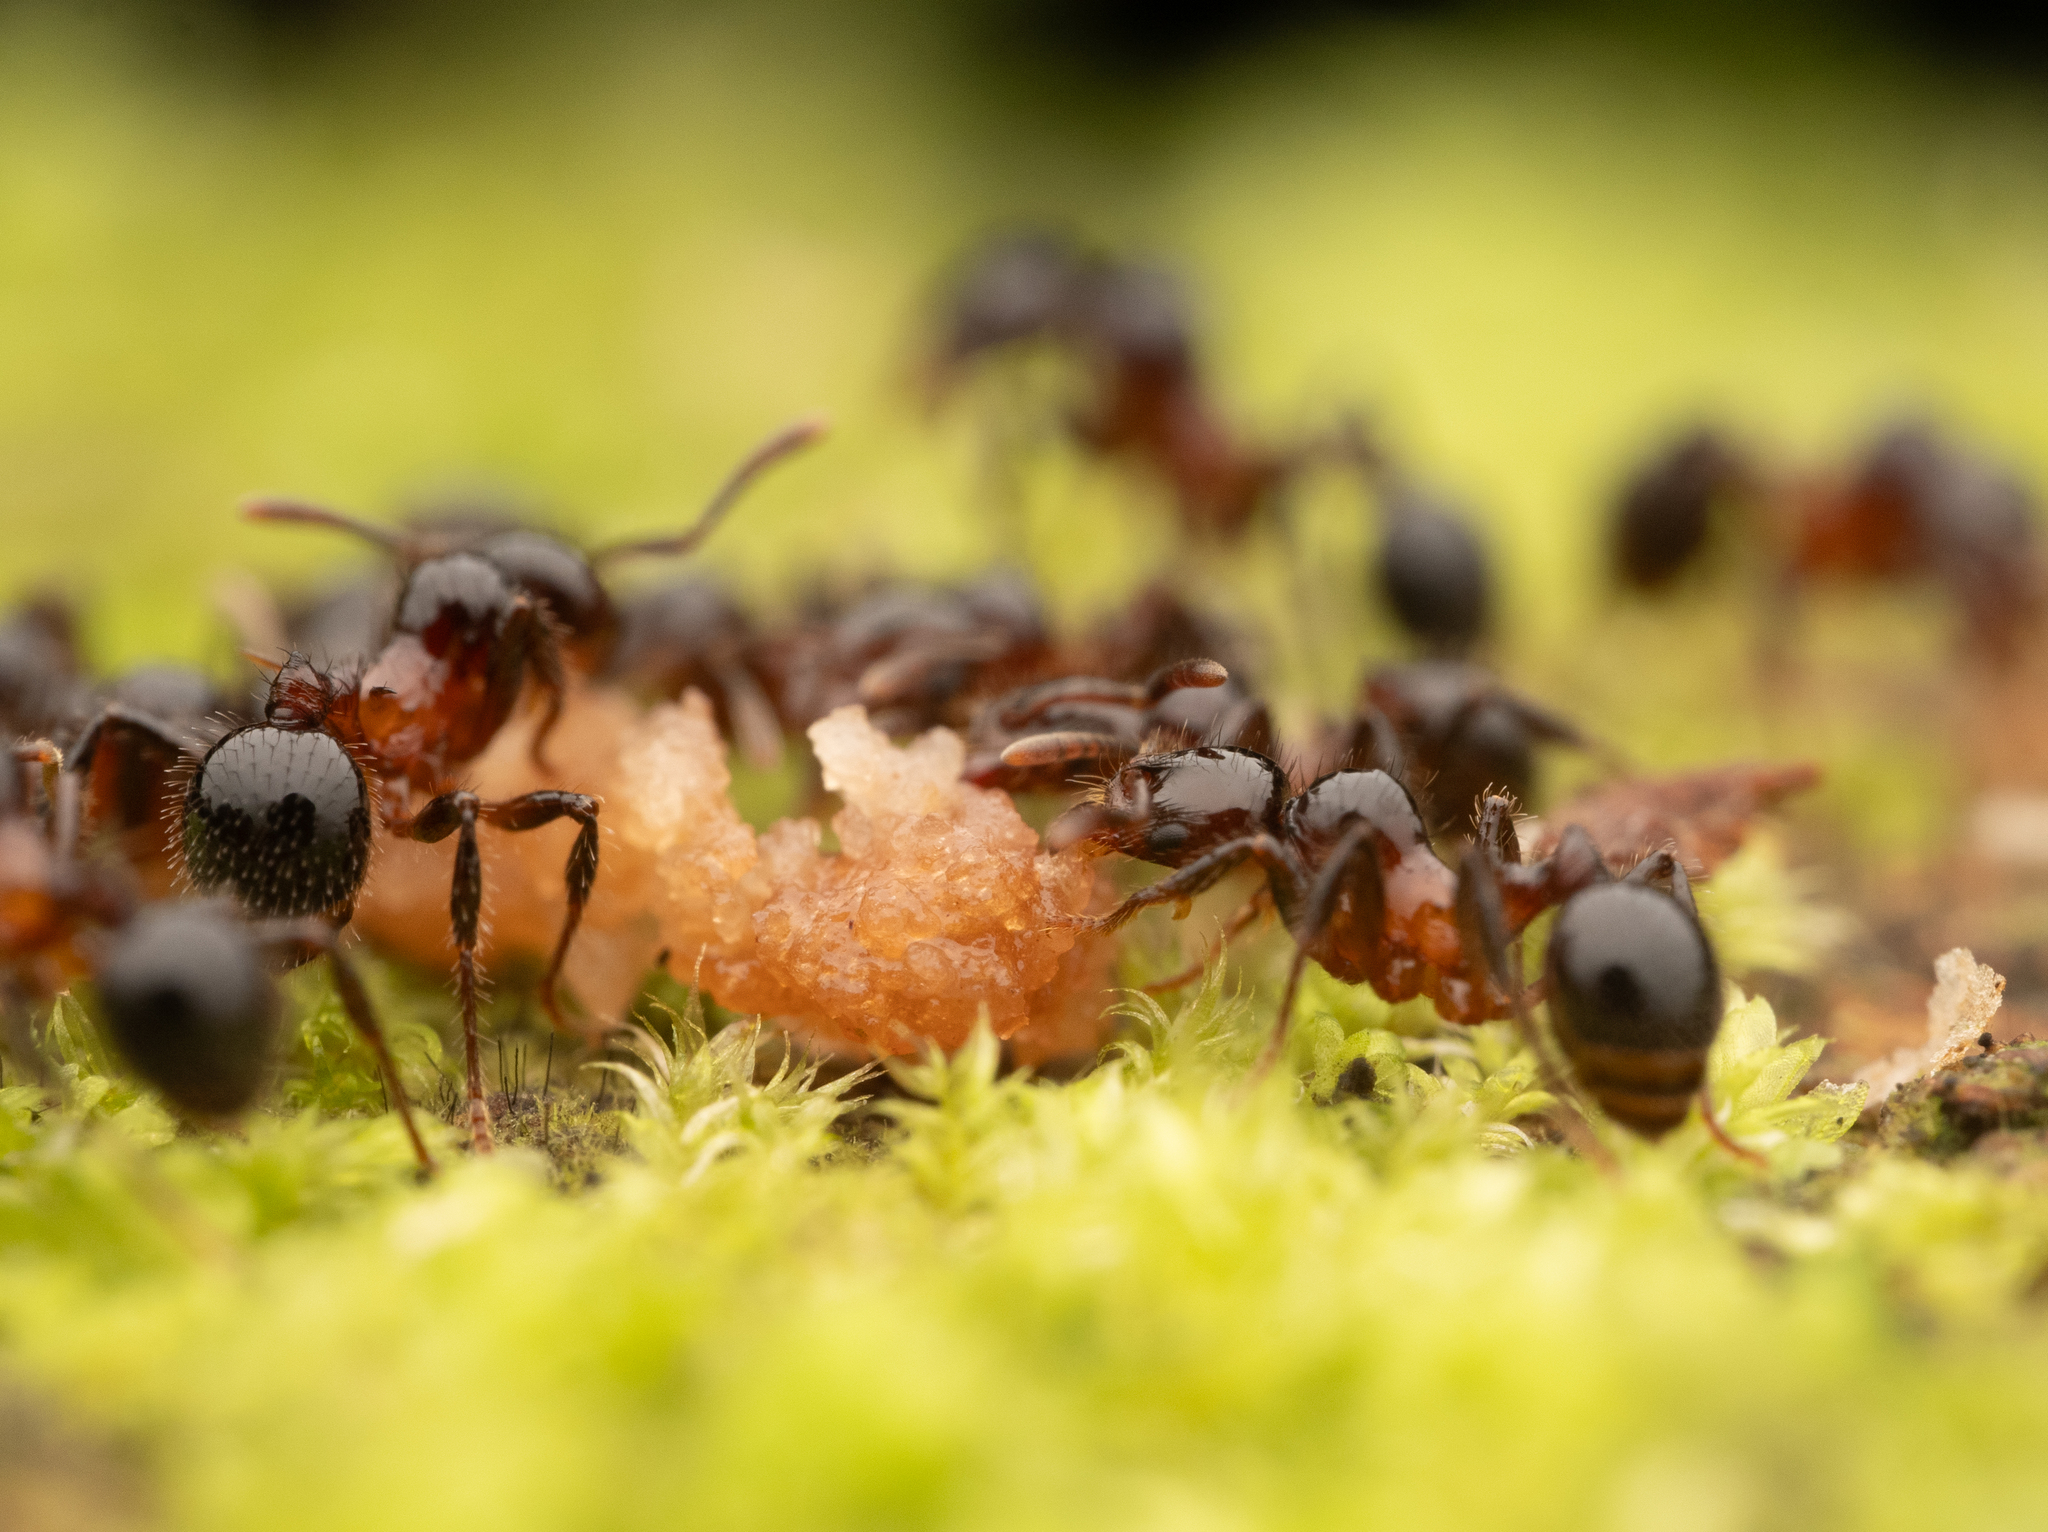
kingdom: Animalia
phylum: Arthropoda
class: Insecta
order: Hymenoptera
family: Formicidae
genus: Lordomyrma
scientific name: Lordomyrma furcifera
